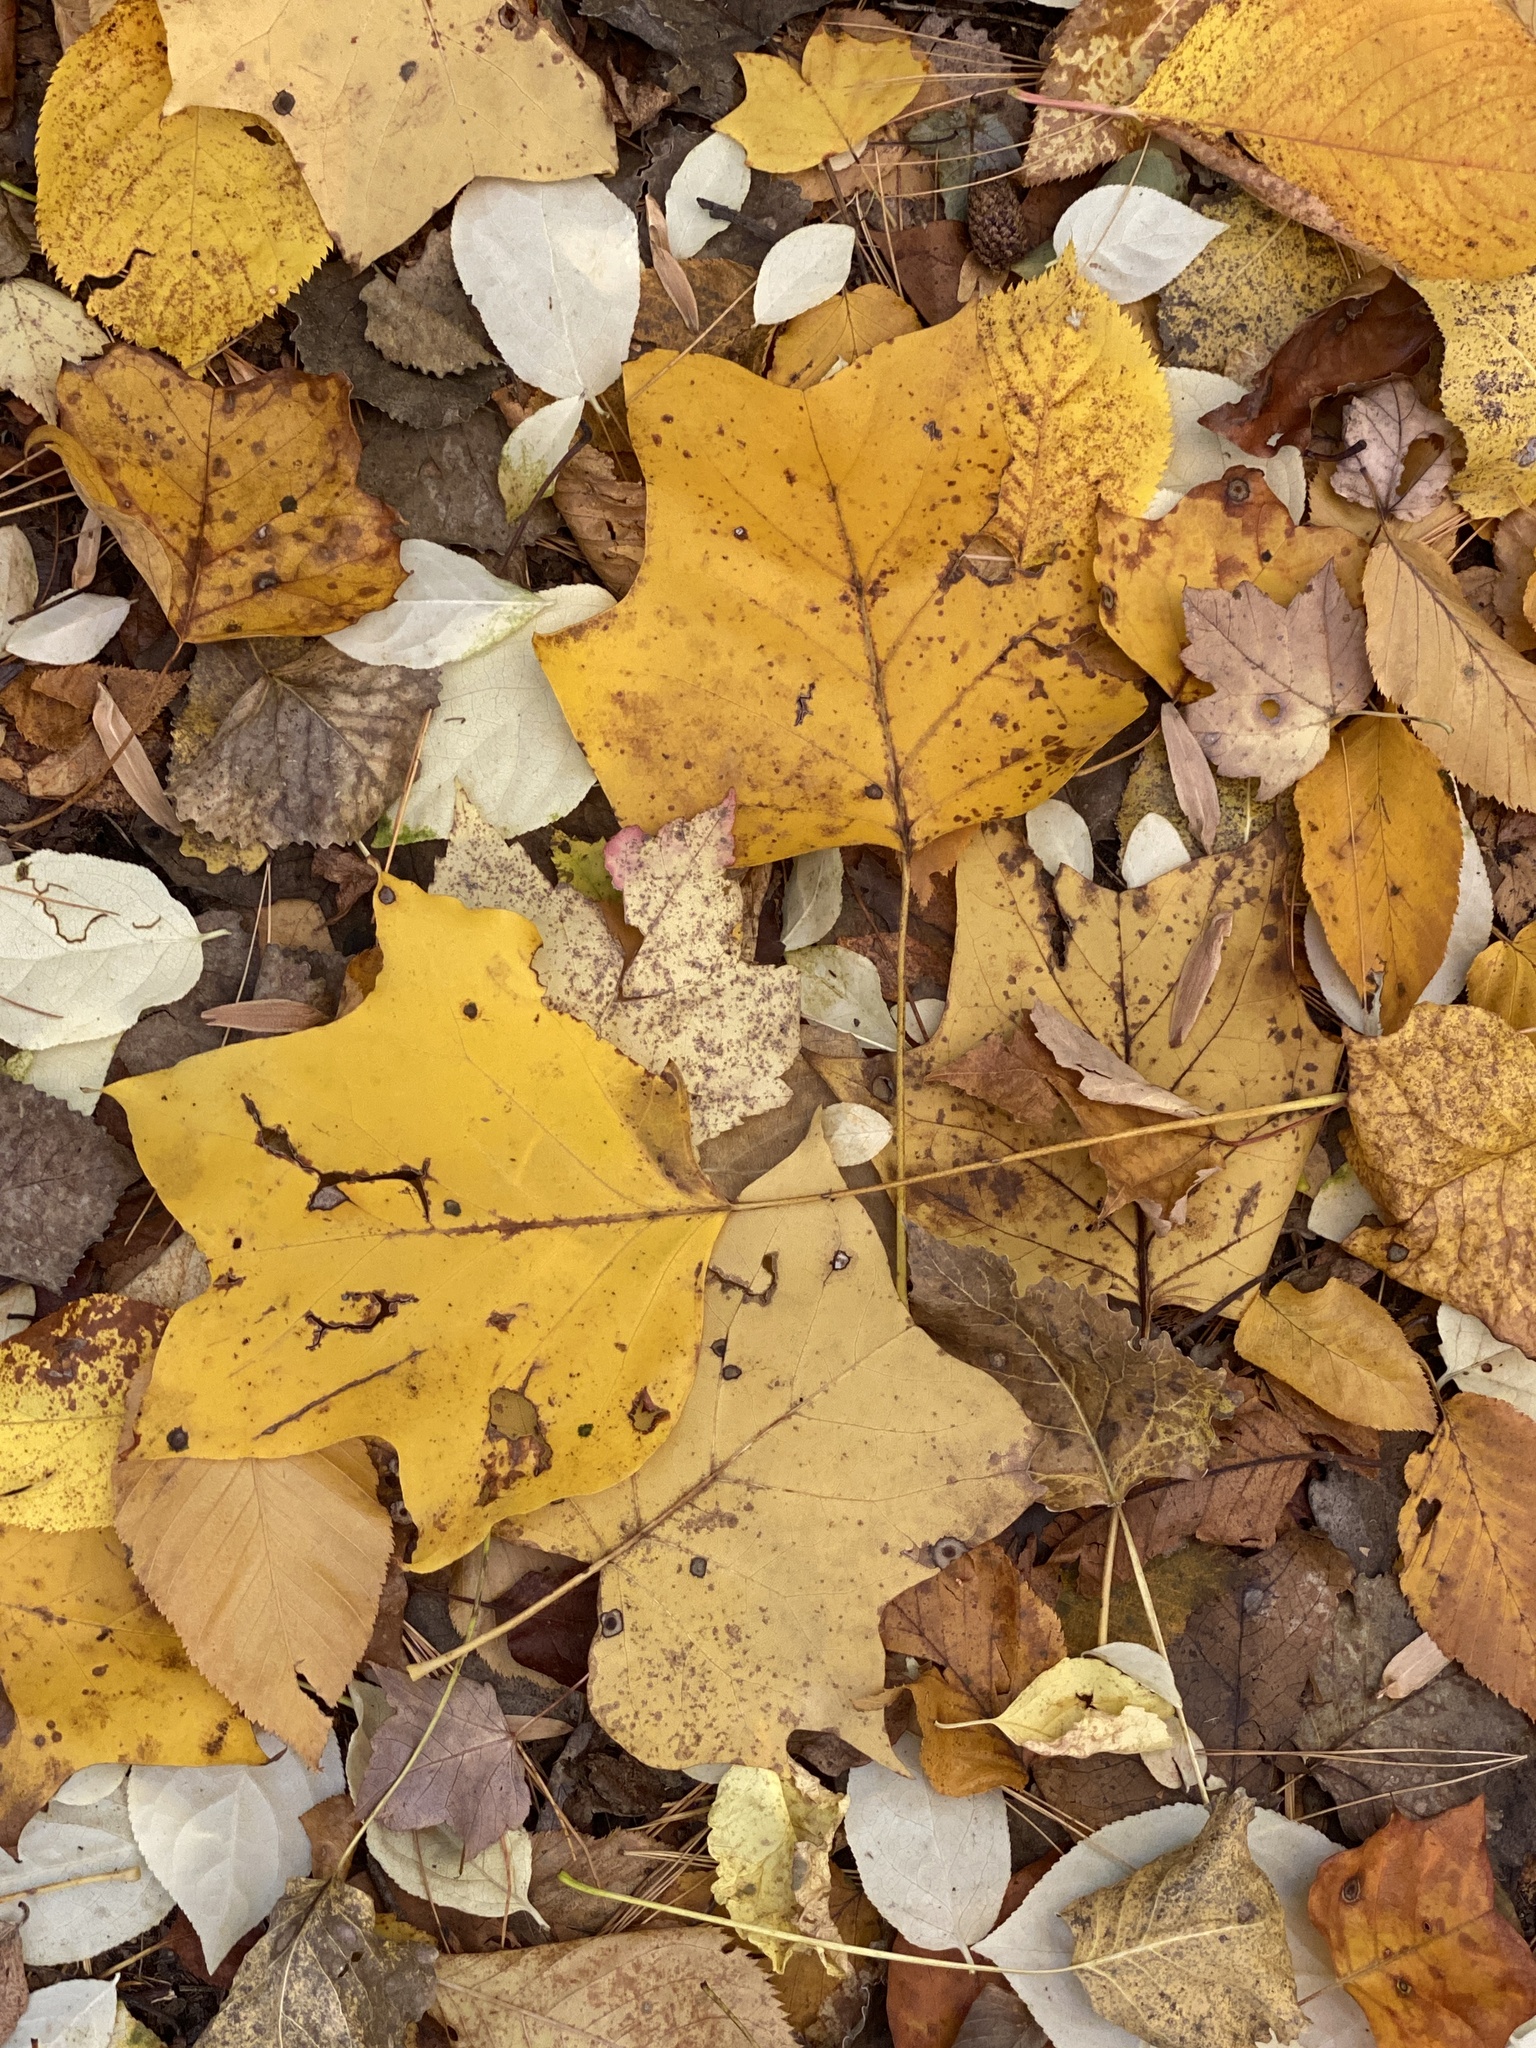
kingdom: Plantae
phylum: Tracheophyta
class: Magnoliopsida
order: Magnoliales
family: Magnoliaceae
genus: Liriodendron
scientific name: Liriodendron tulipifera
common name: Tulip tree
